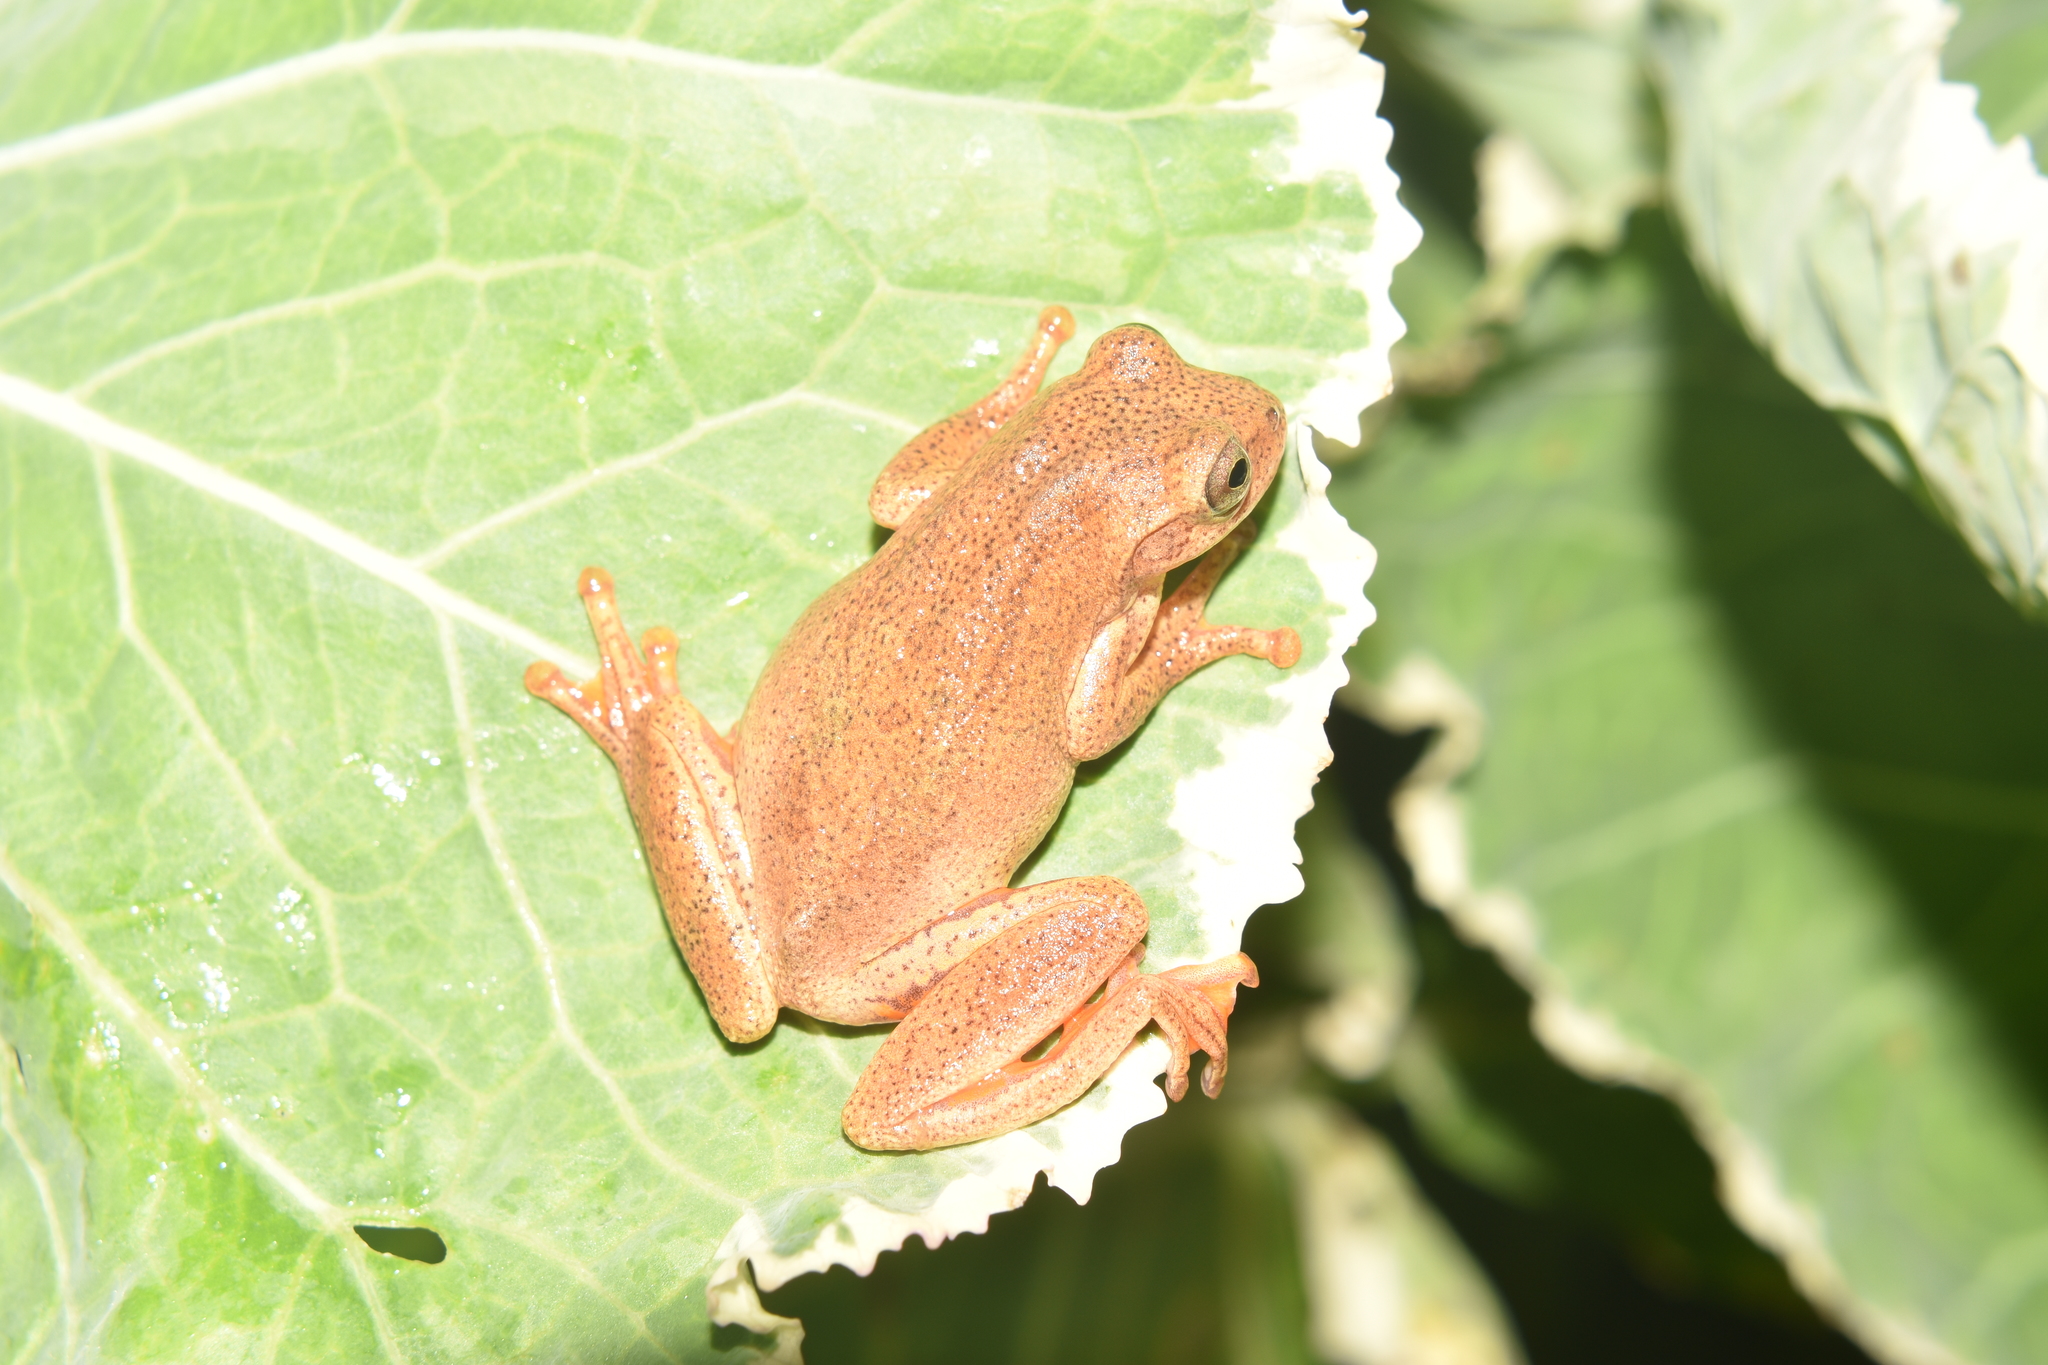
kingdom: Animalia
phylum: Chordata
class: Amphibia
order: Anura
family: Hylidae
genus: Dendropsophus
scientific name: Dendropsophus bogerti
